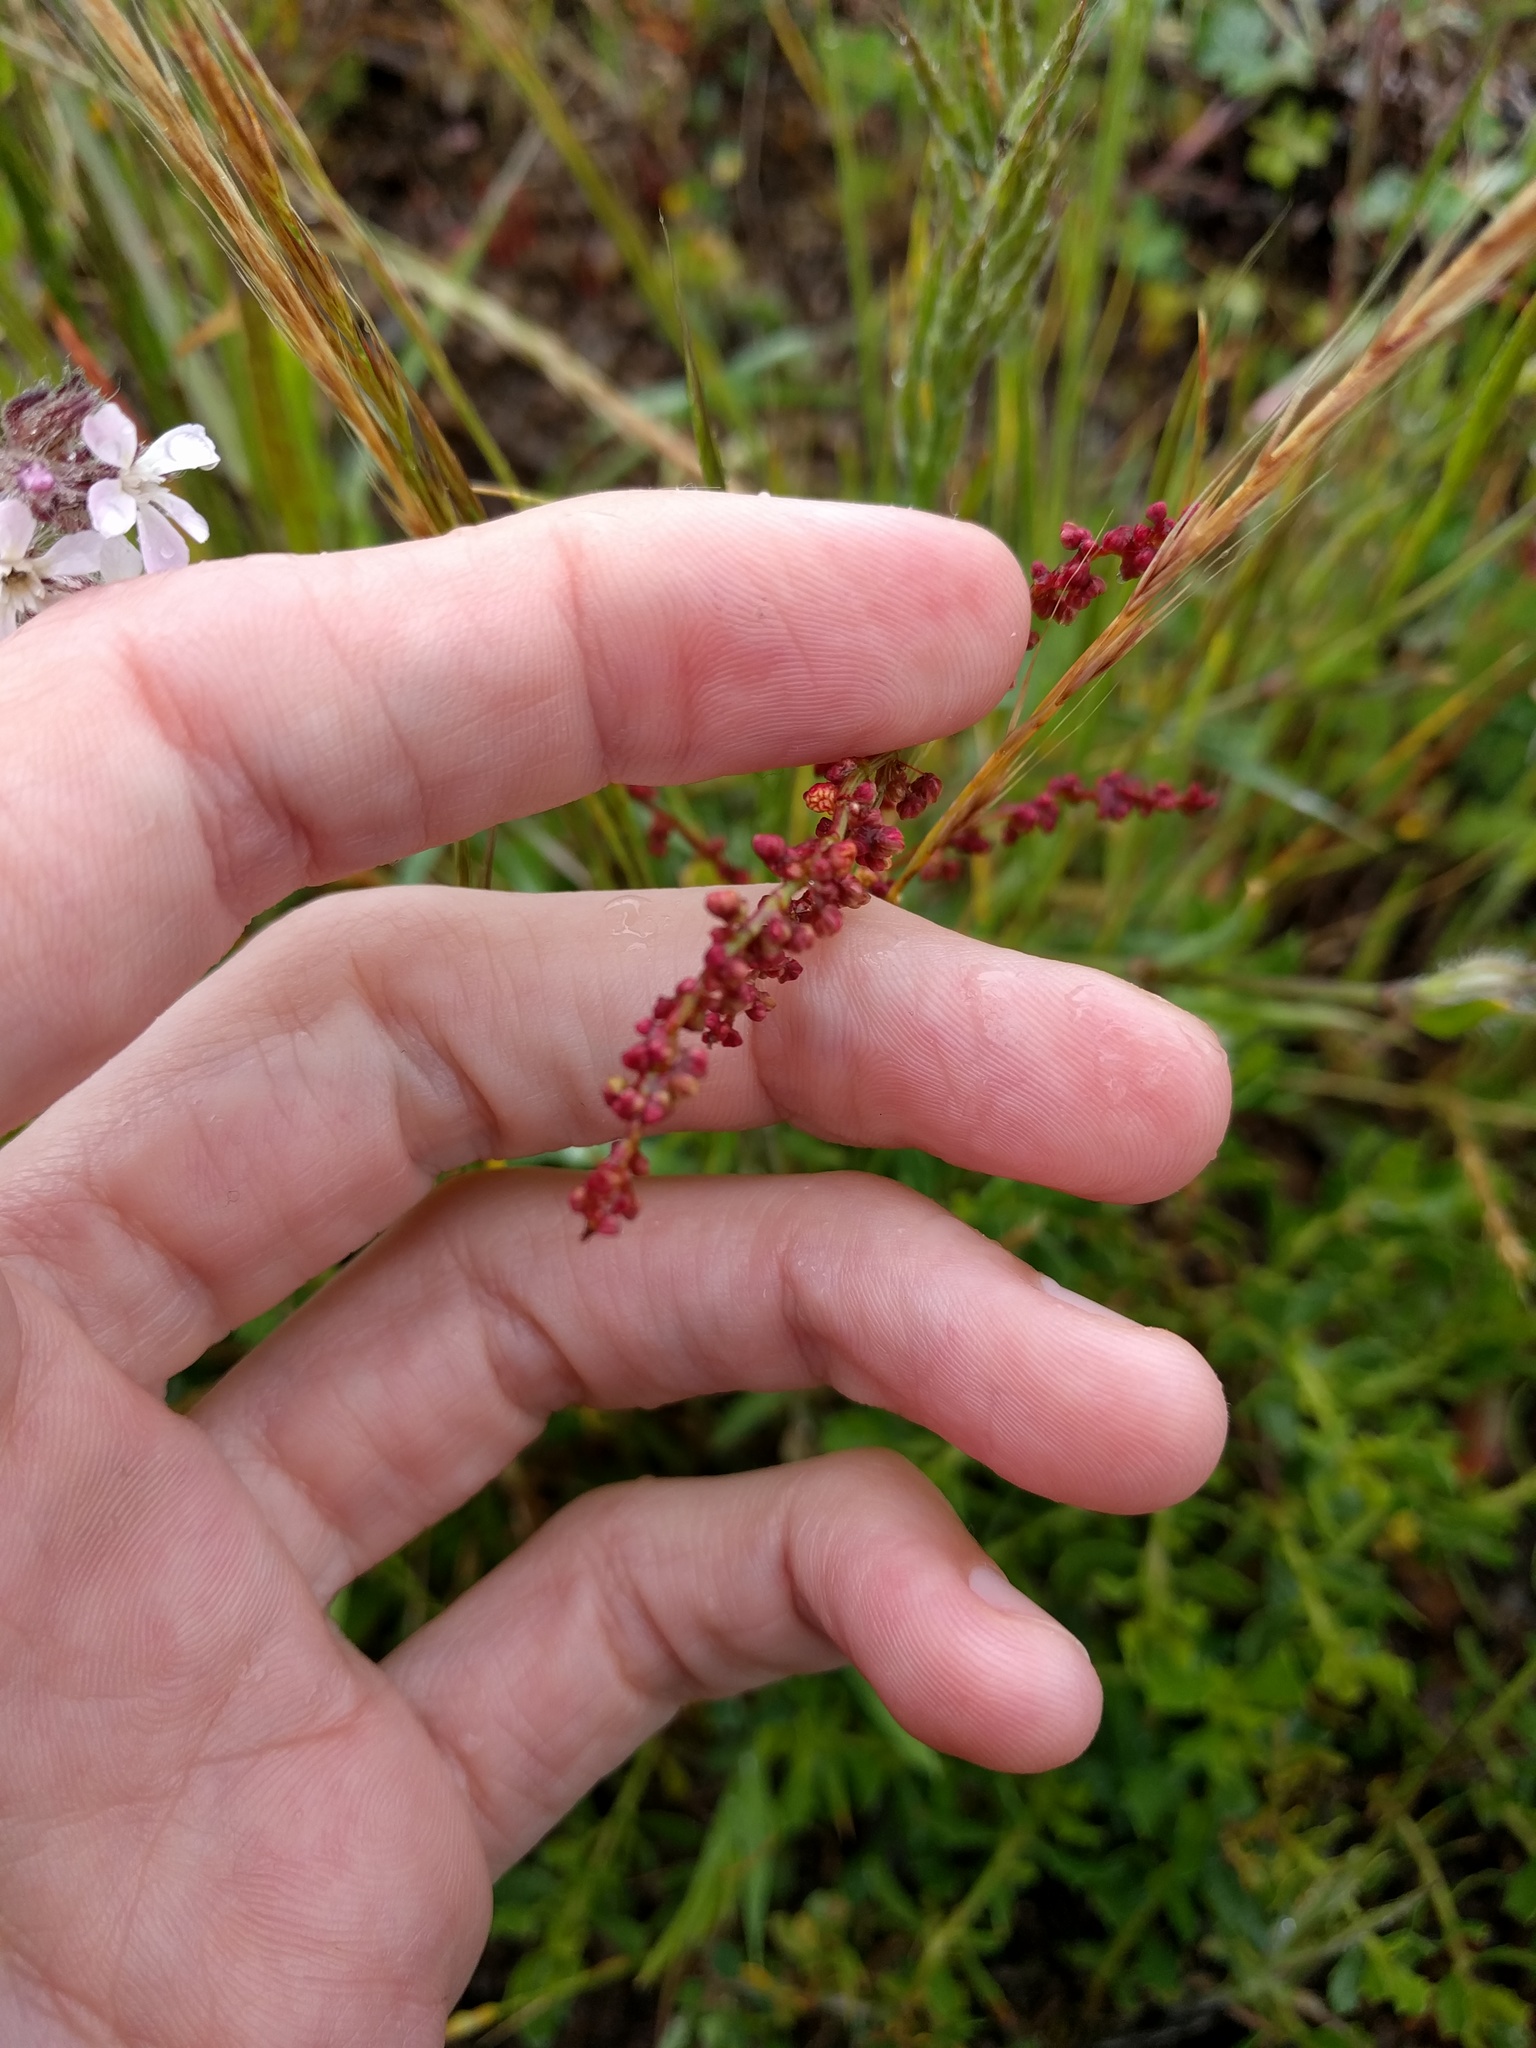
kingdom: Plantae
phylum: Tracheophyta
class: Magnoliopsida
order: Caryophyllales
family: Polygonaceae
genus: Rumex
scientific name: Rumex acetosella
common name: Common sheep sorrel
